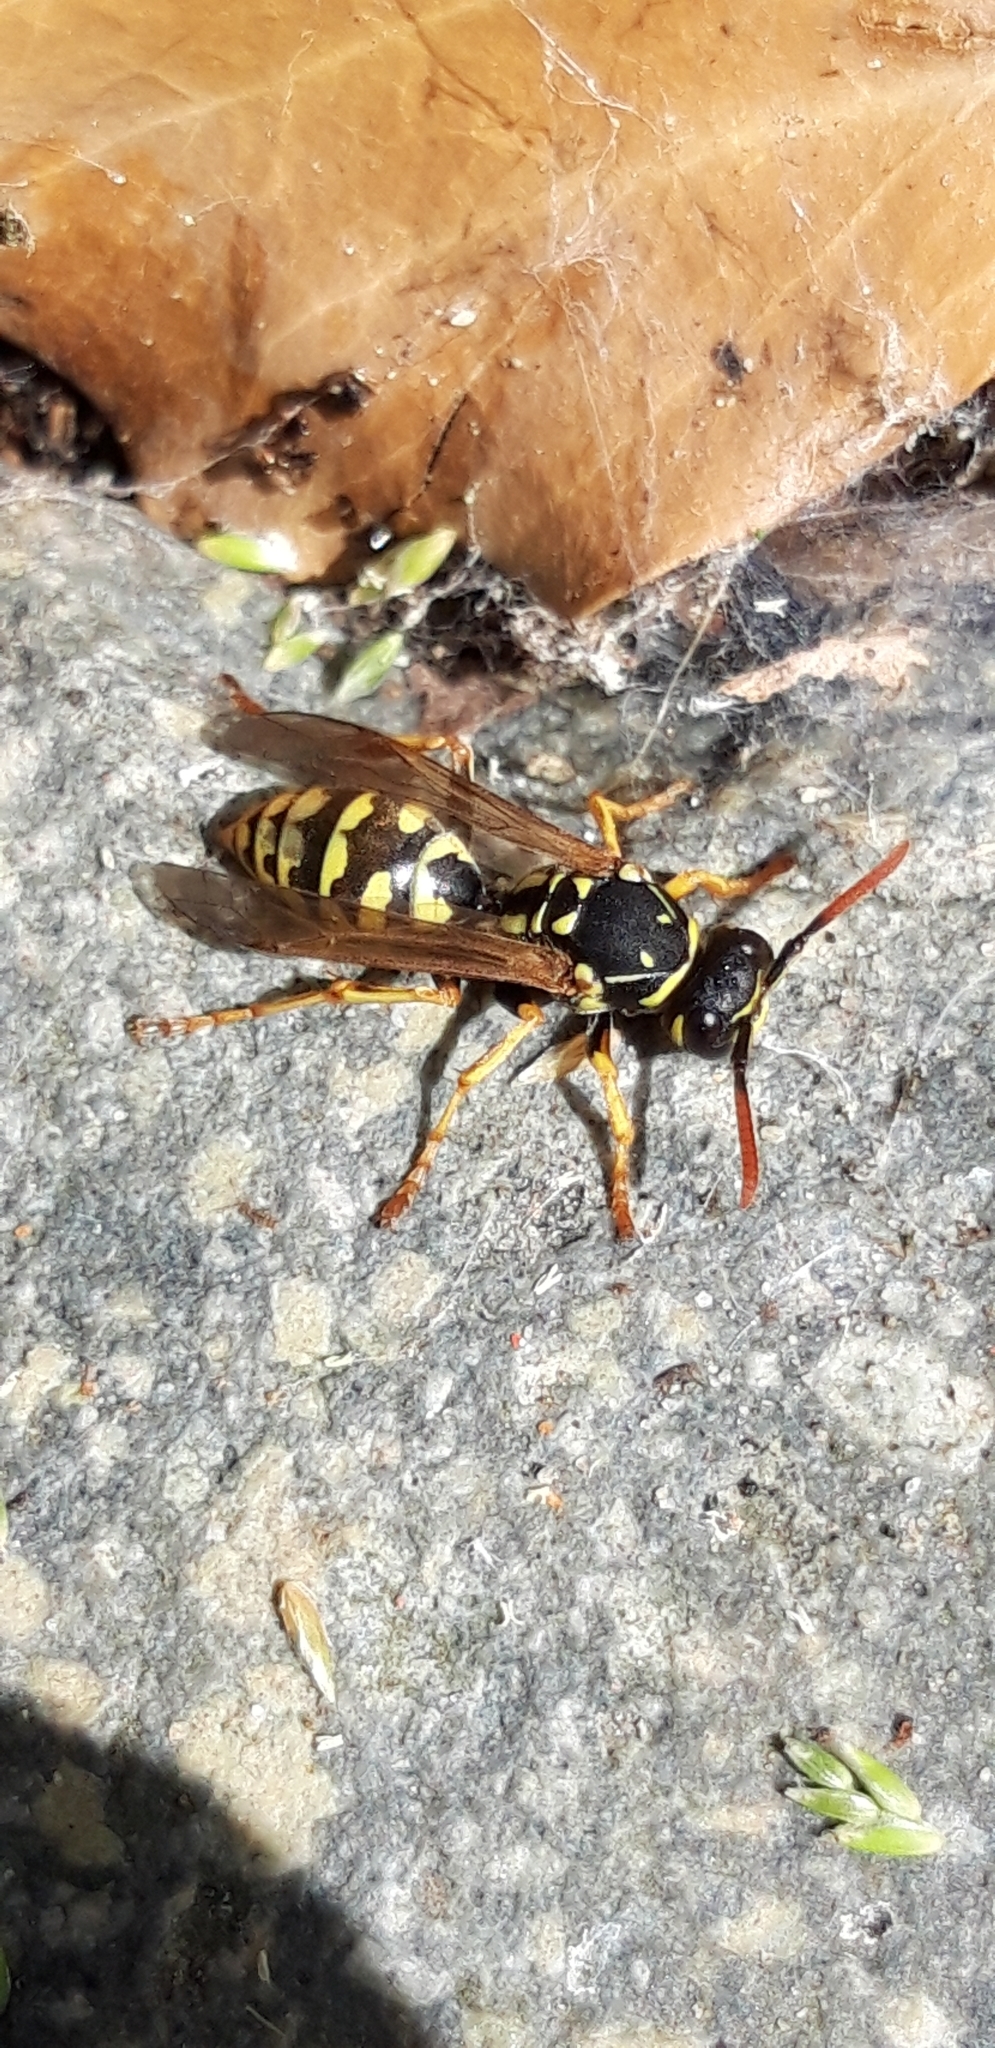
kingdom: Animalia
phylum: Arthropoda
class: Insecta
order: Hymenoptera
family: Eumenidae
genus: Polistes
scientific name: Polistes dominula
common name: Paper wasp
